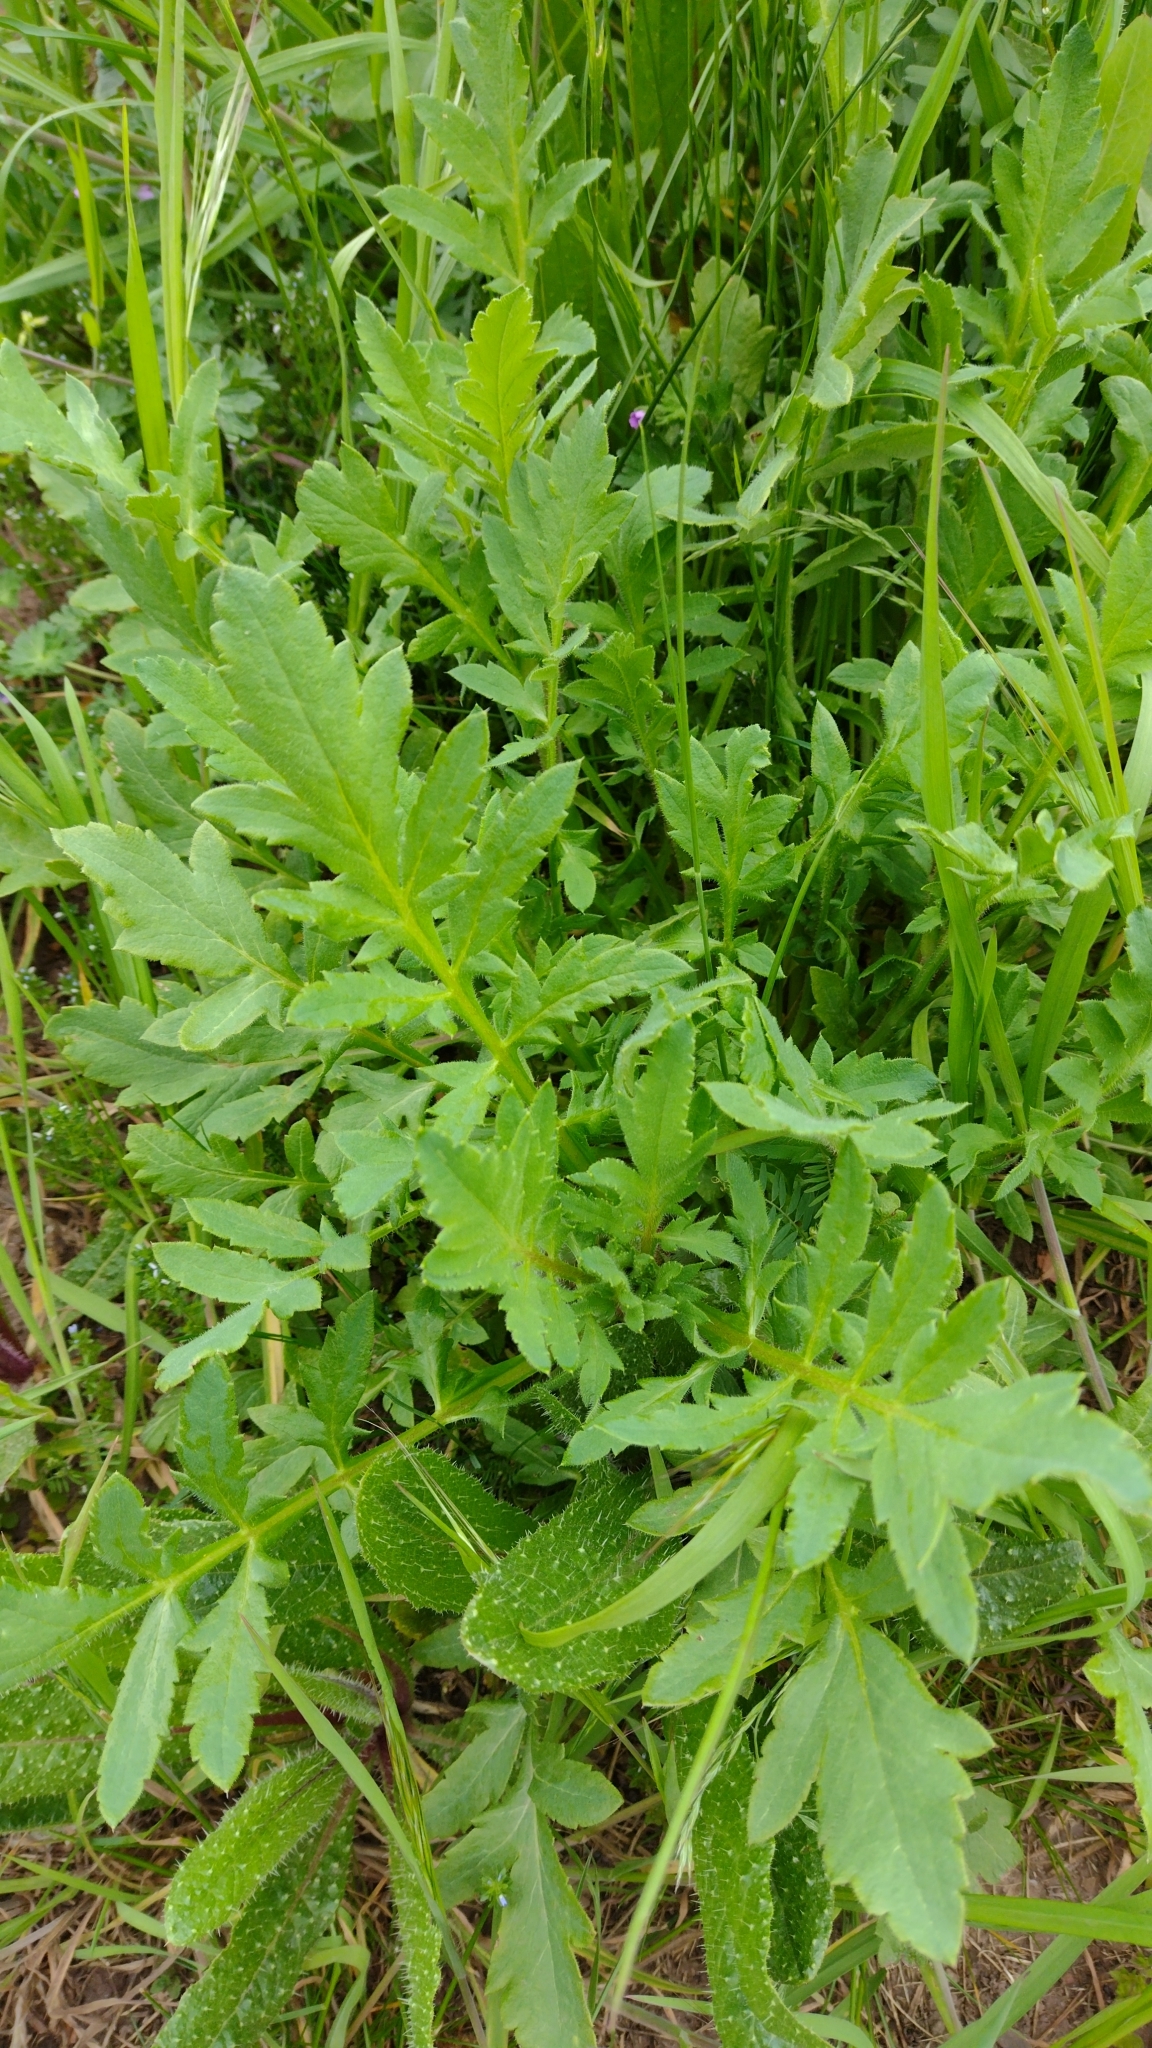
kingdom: Plantae
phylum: Tracheophyta
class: Magnoliopsida
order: Ranunculales
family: Papaveraceae
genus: Papaver
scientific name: Papaver rhoeas
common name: Corn poppy
